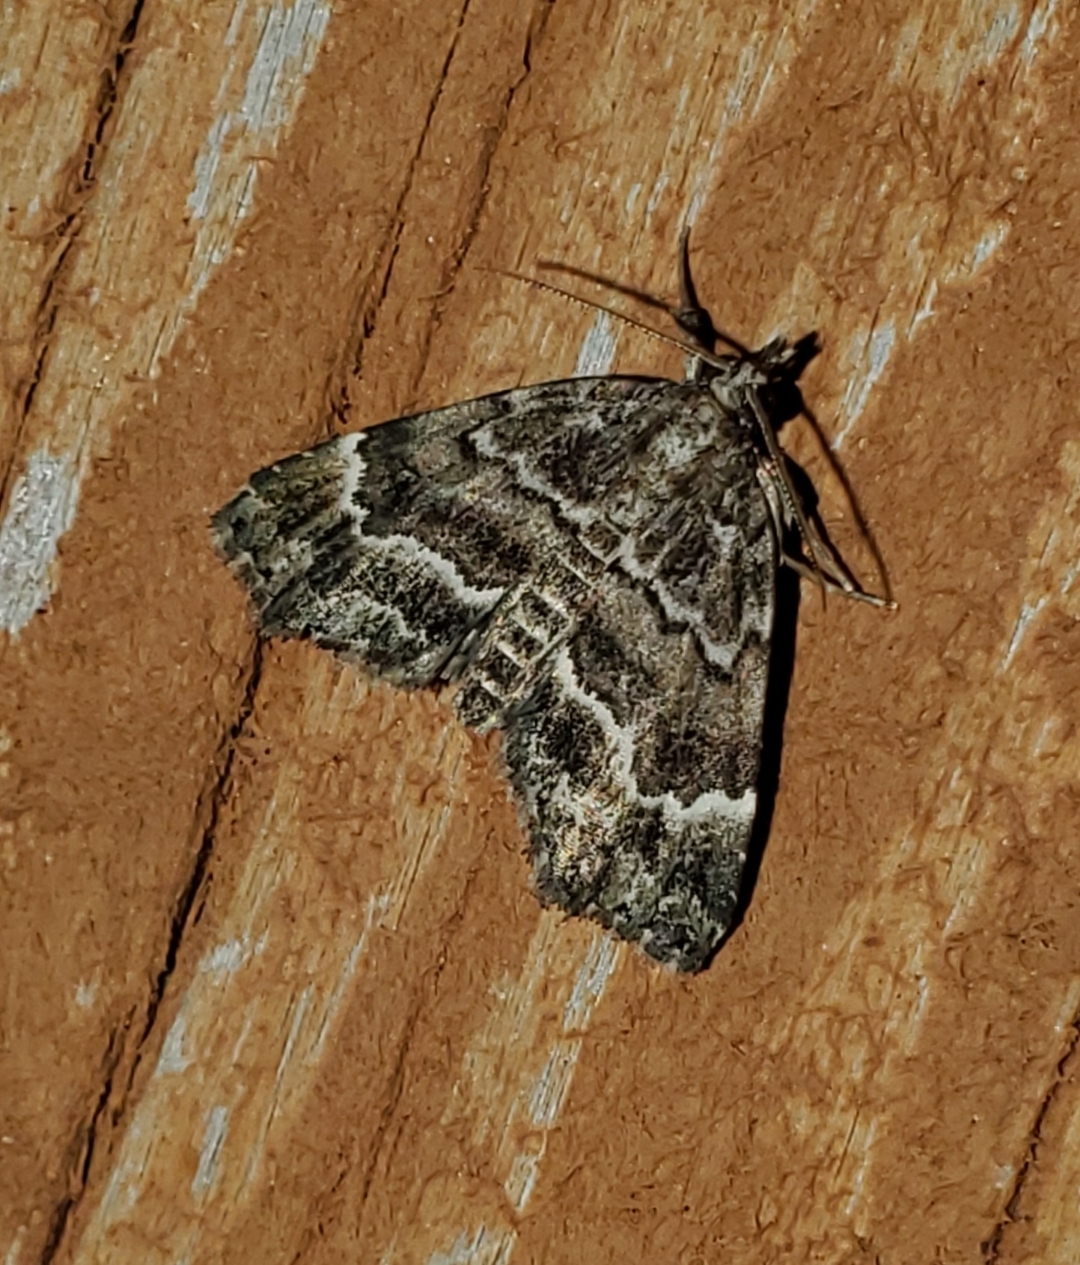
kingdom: Animalia
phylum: Arthropoda
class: Insecta
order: Lepidoptera
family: Erebidae
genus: Cutina
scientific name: Cutina arcuata
